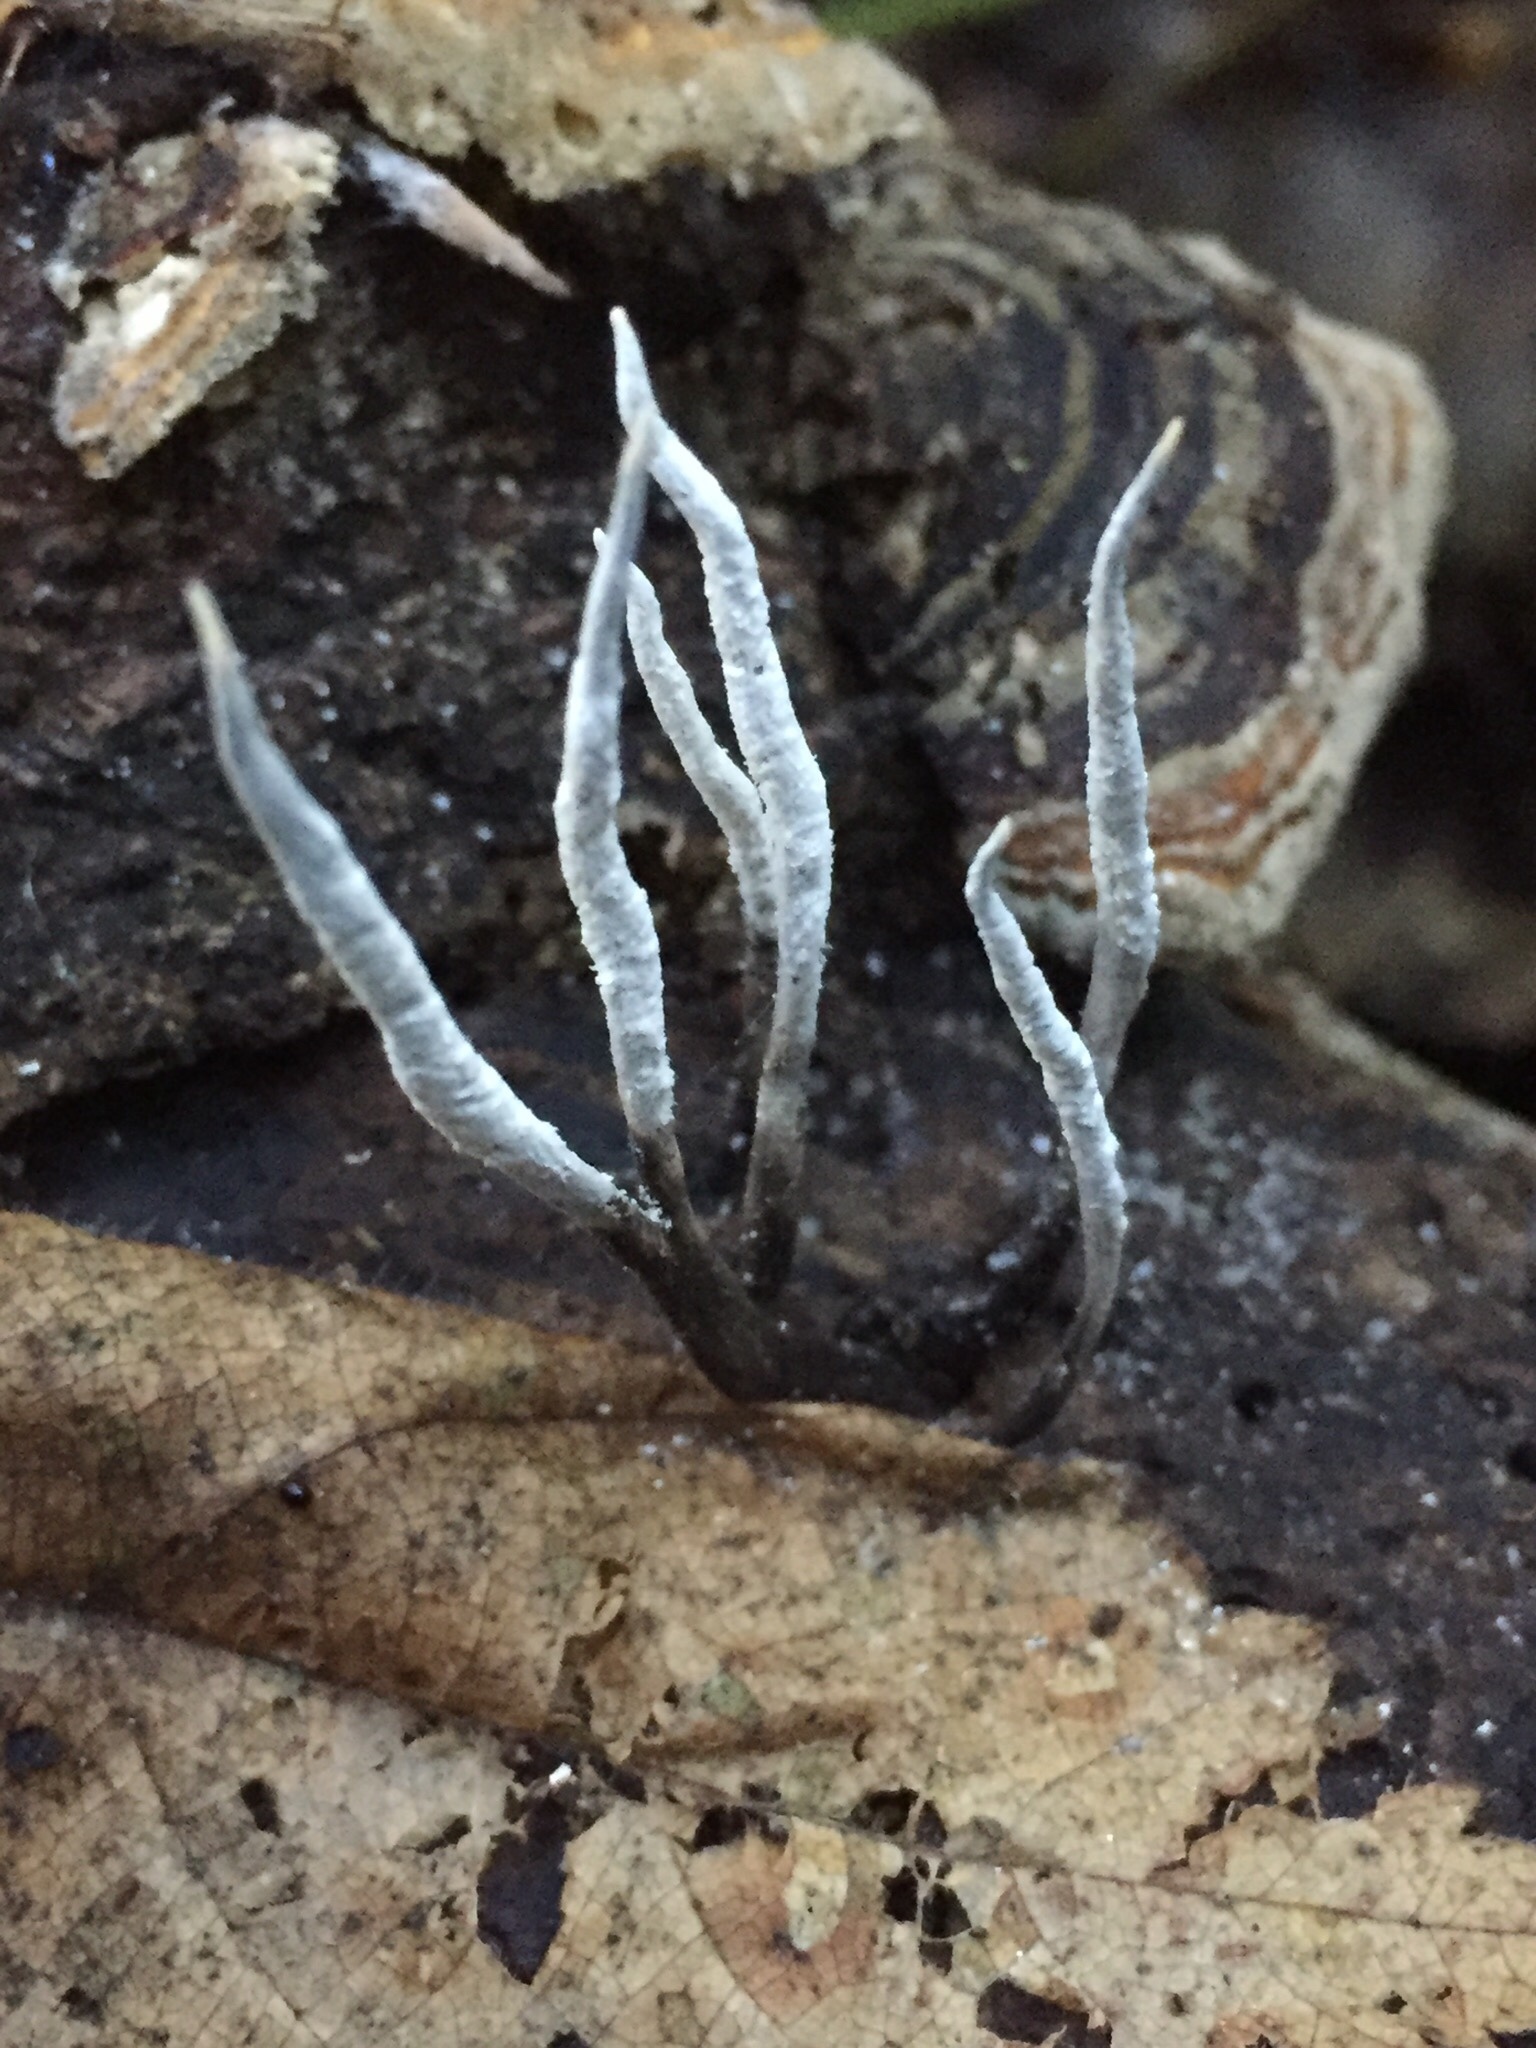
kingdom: Fungi
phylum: Ascomycota
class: Sordariomycetes
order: Xylariales
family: Xylariaceae
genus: Xylaria
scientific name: Xylaria hypoxylon
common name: Candle-snuff fungus
